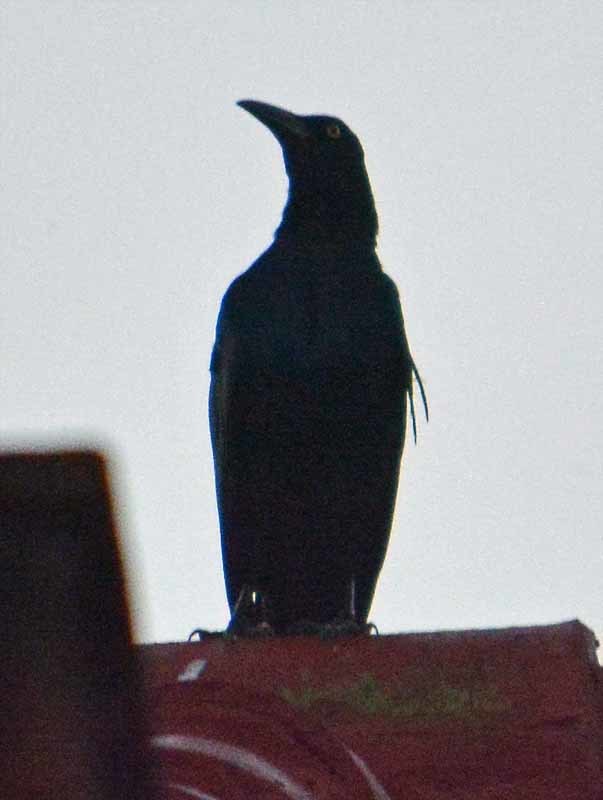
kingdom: Animalia
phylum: Chordata
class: Aves
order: Passeriformes
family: Icteridae
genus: Quiscalus
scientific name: Quiscalus mexicanus
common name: Great-tailed grackle
